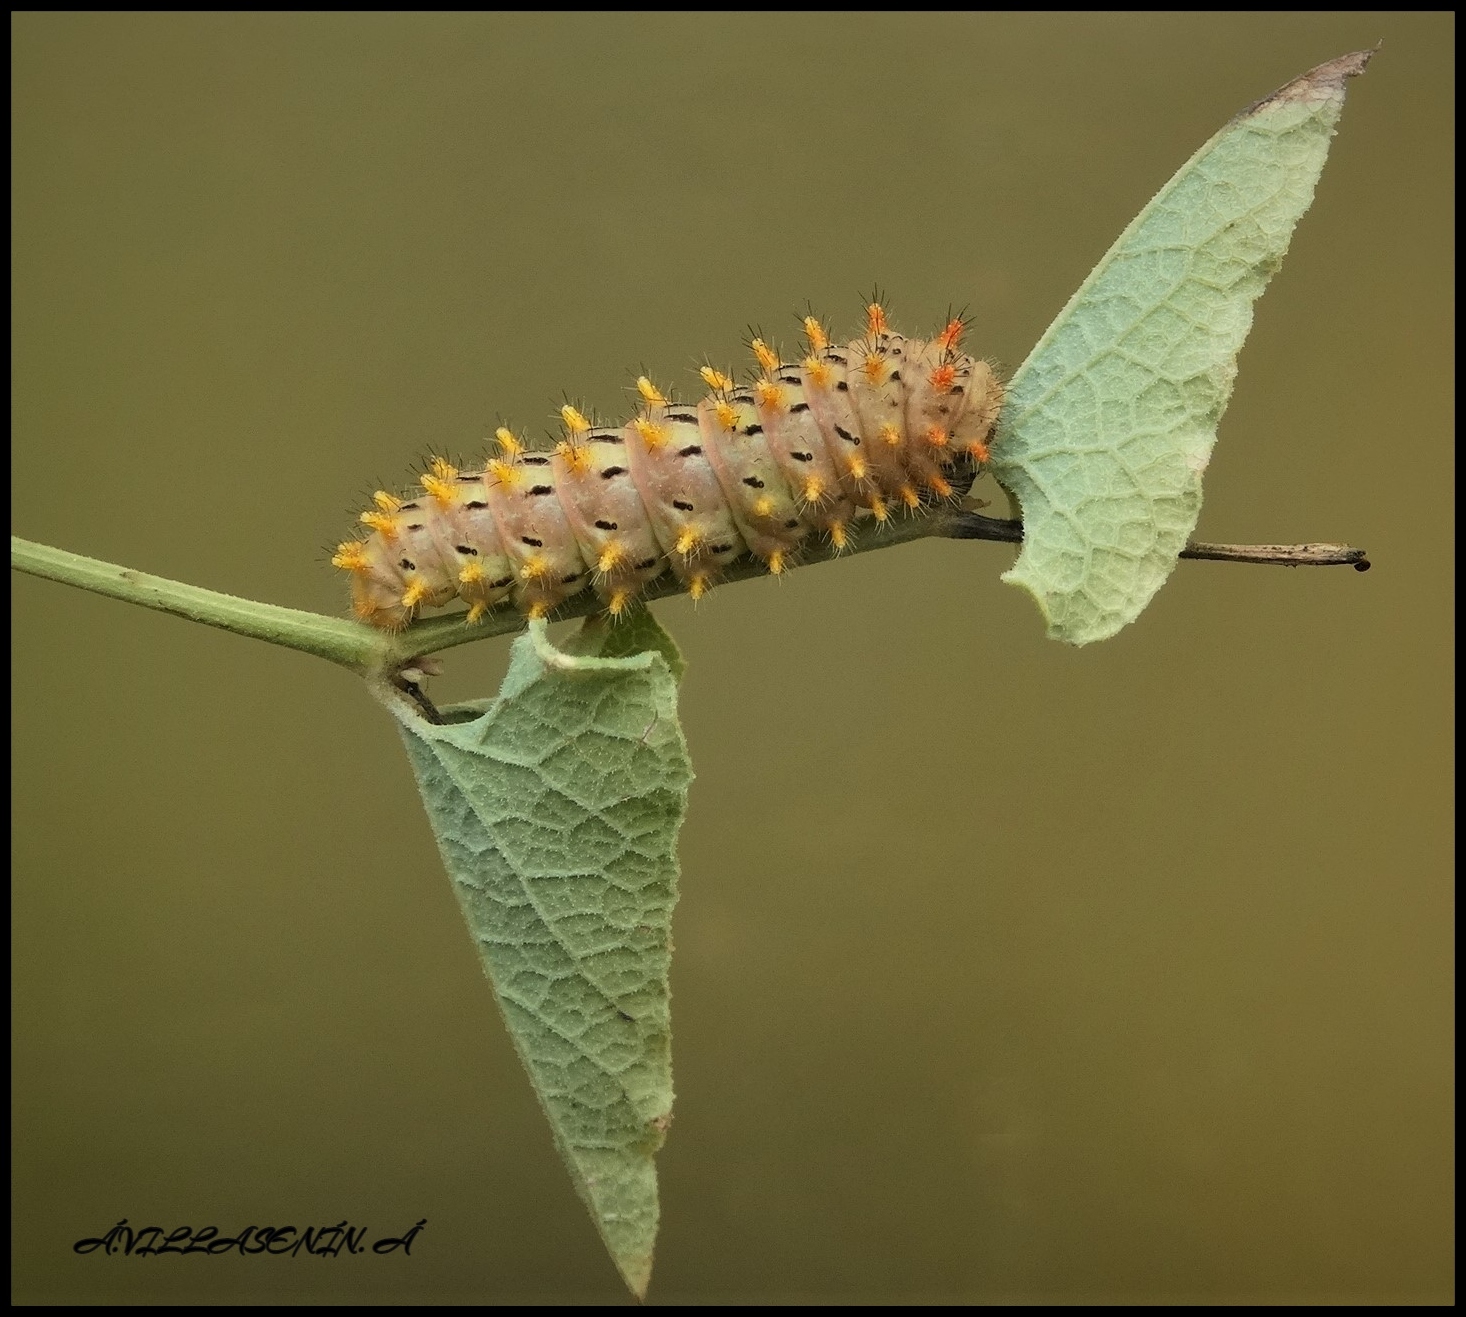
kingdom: Animalia
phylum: Arthropoda
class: Insecta
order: Lepidoptera
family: Papilionidae
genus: Zerynthia
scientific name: Zerynthia rumina
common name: Spanish festoon
